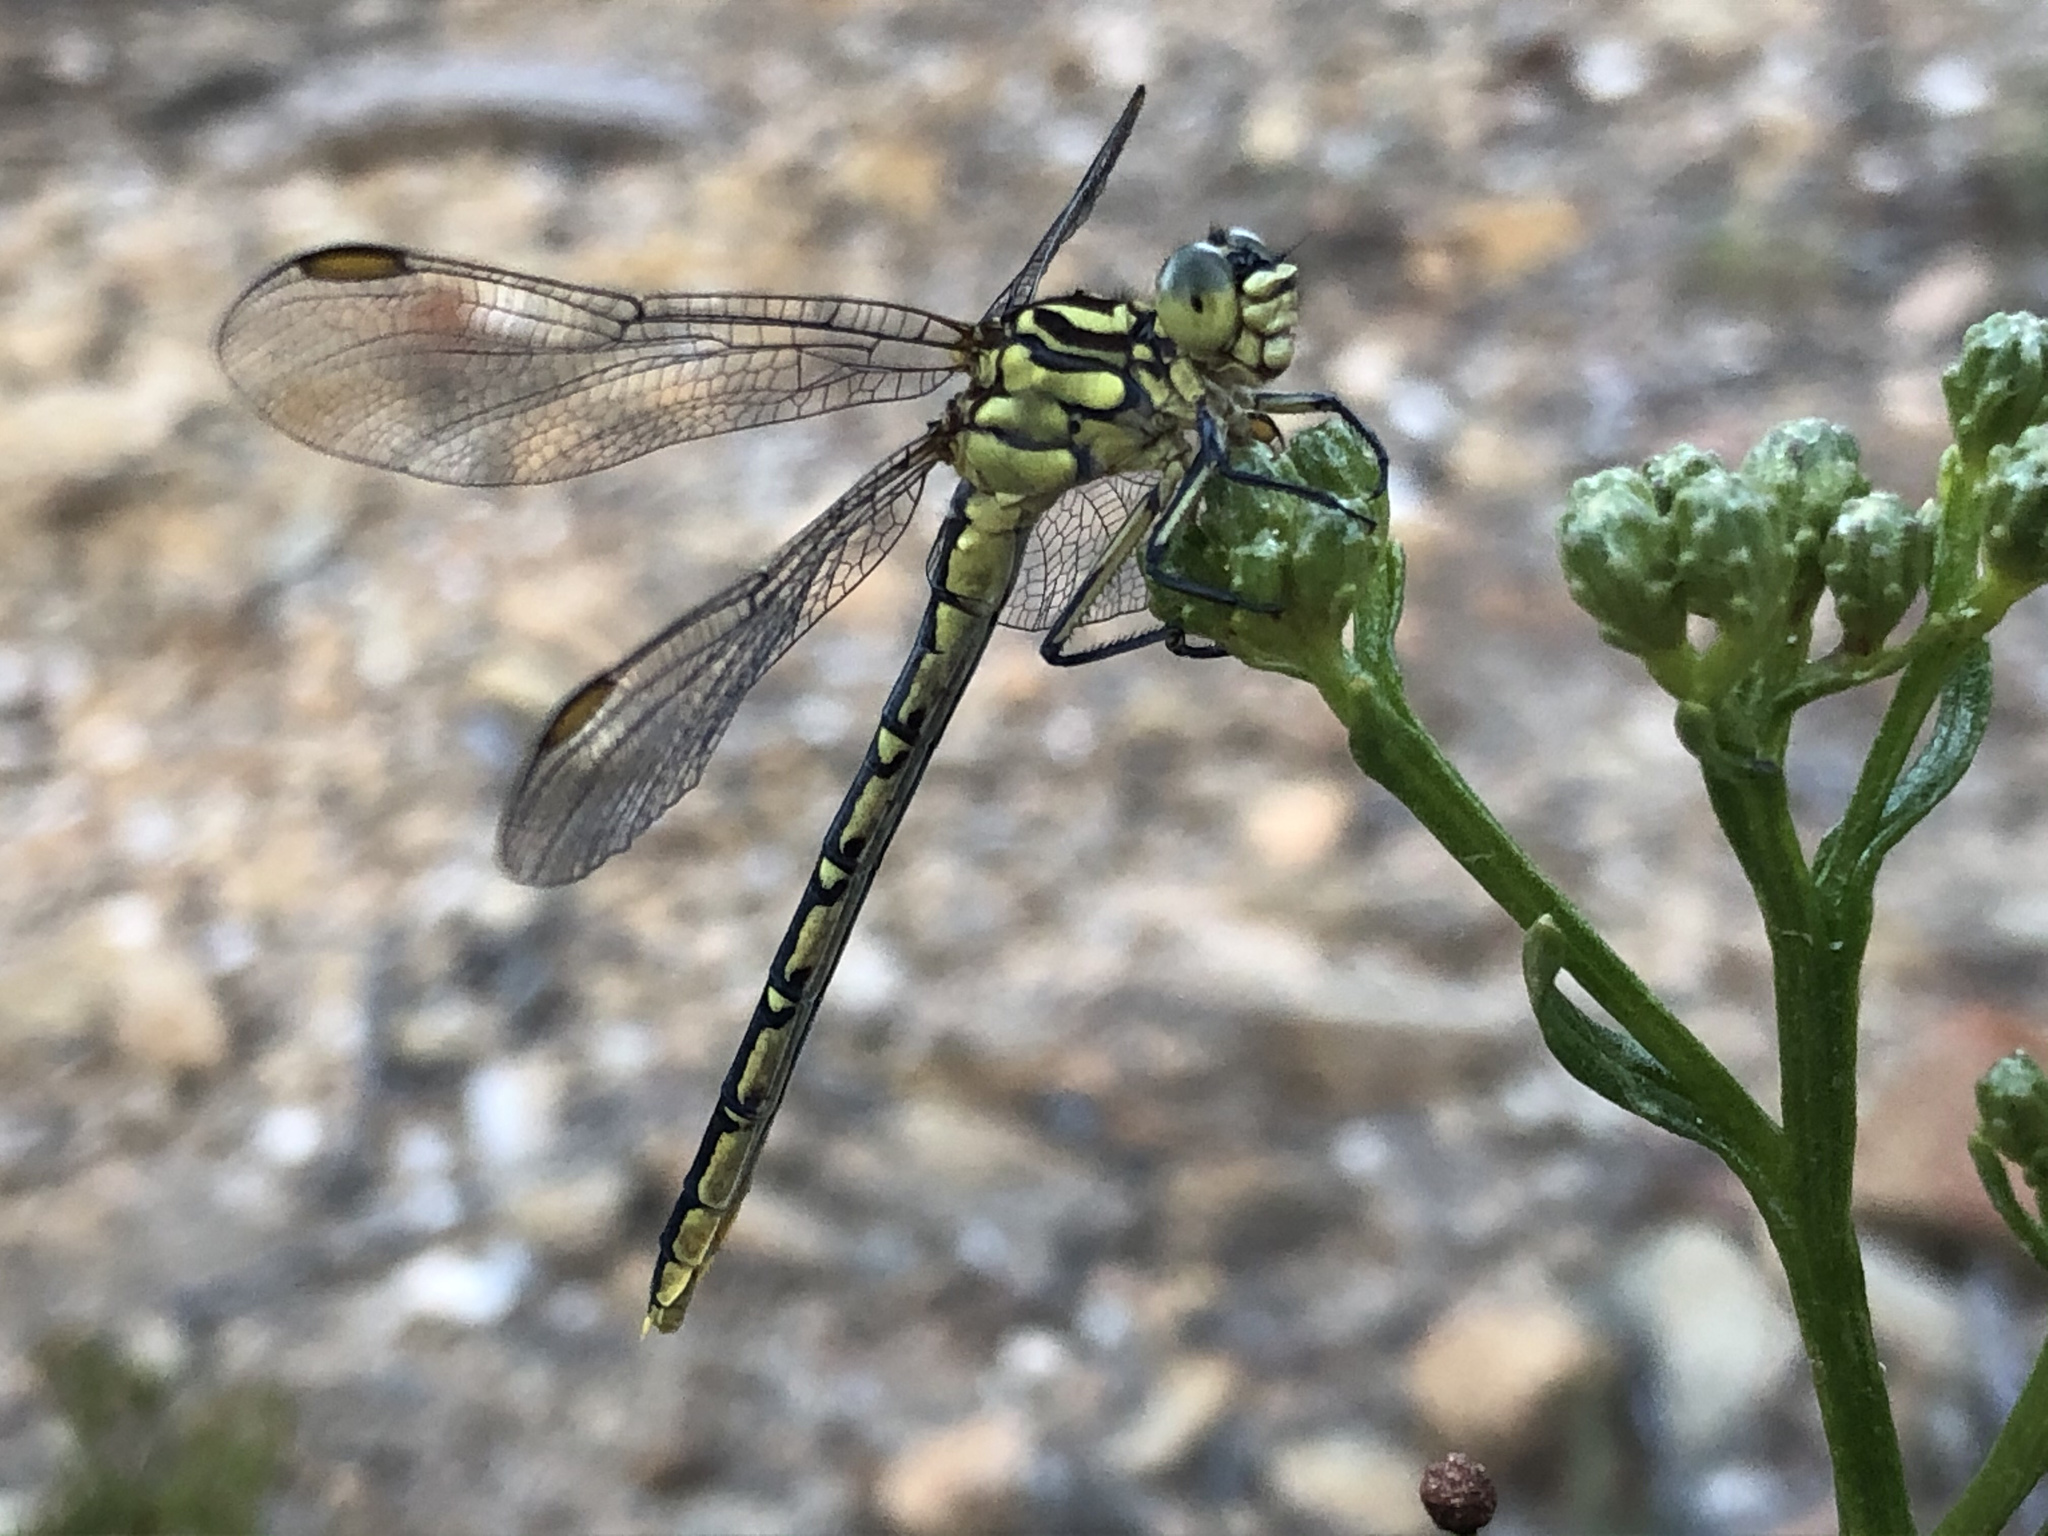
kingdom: Animalia
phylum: Arthropoda
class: Insecta
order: Odonata
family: Gomphidae
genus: Austrogomphus
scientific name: Austrogomphus guerini
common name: Yellow-striped hunter
